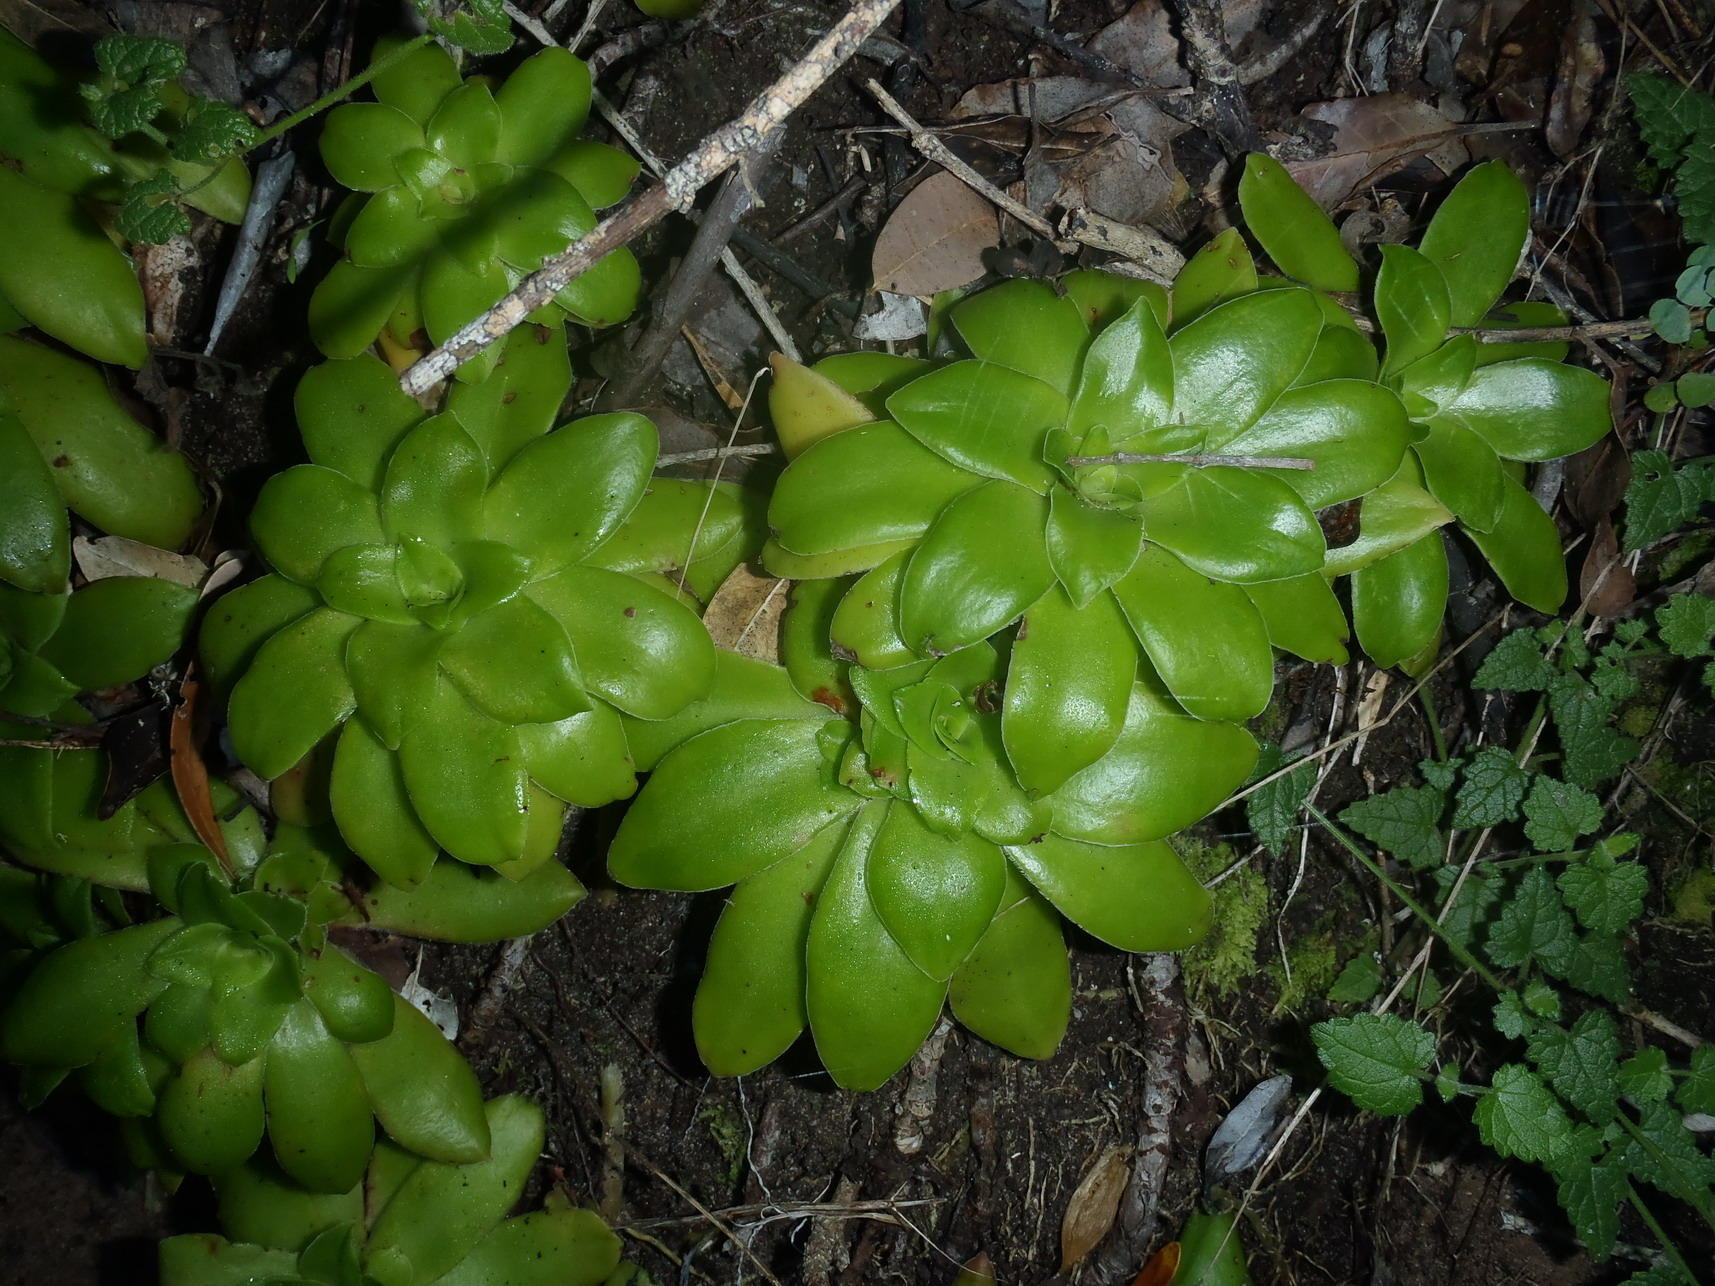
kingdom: Plantae
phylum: Tracheophyta
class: Magnoliopsida
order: Saxifragales
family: Crassulaceae
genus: Crassula
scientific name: Crassula orbicularis
